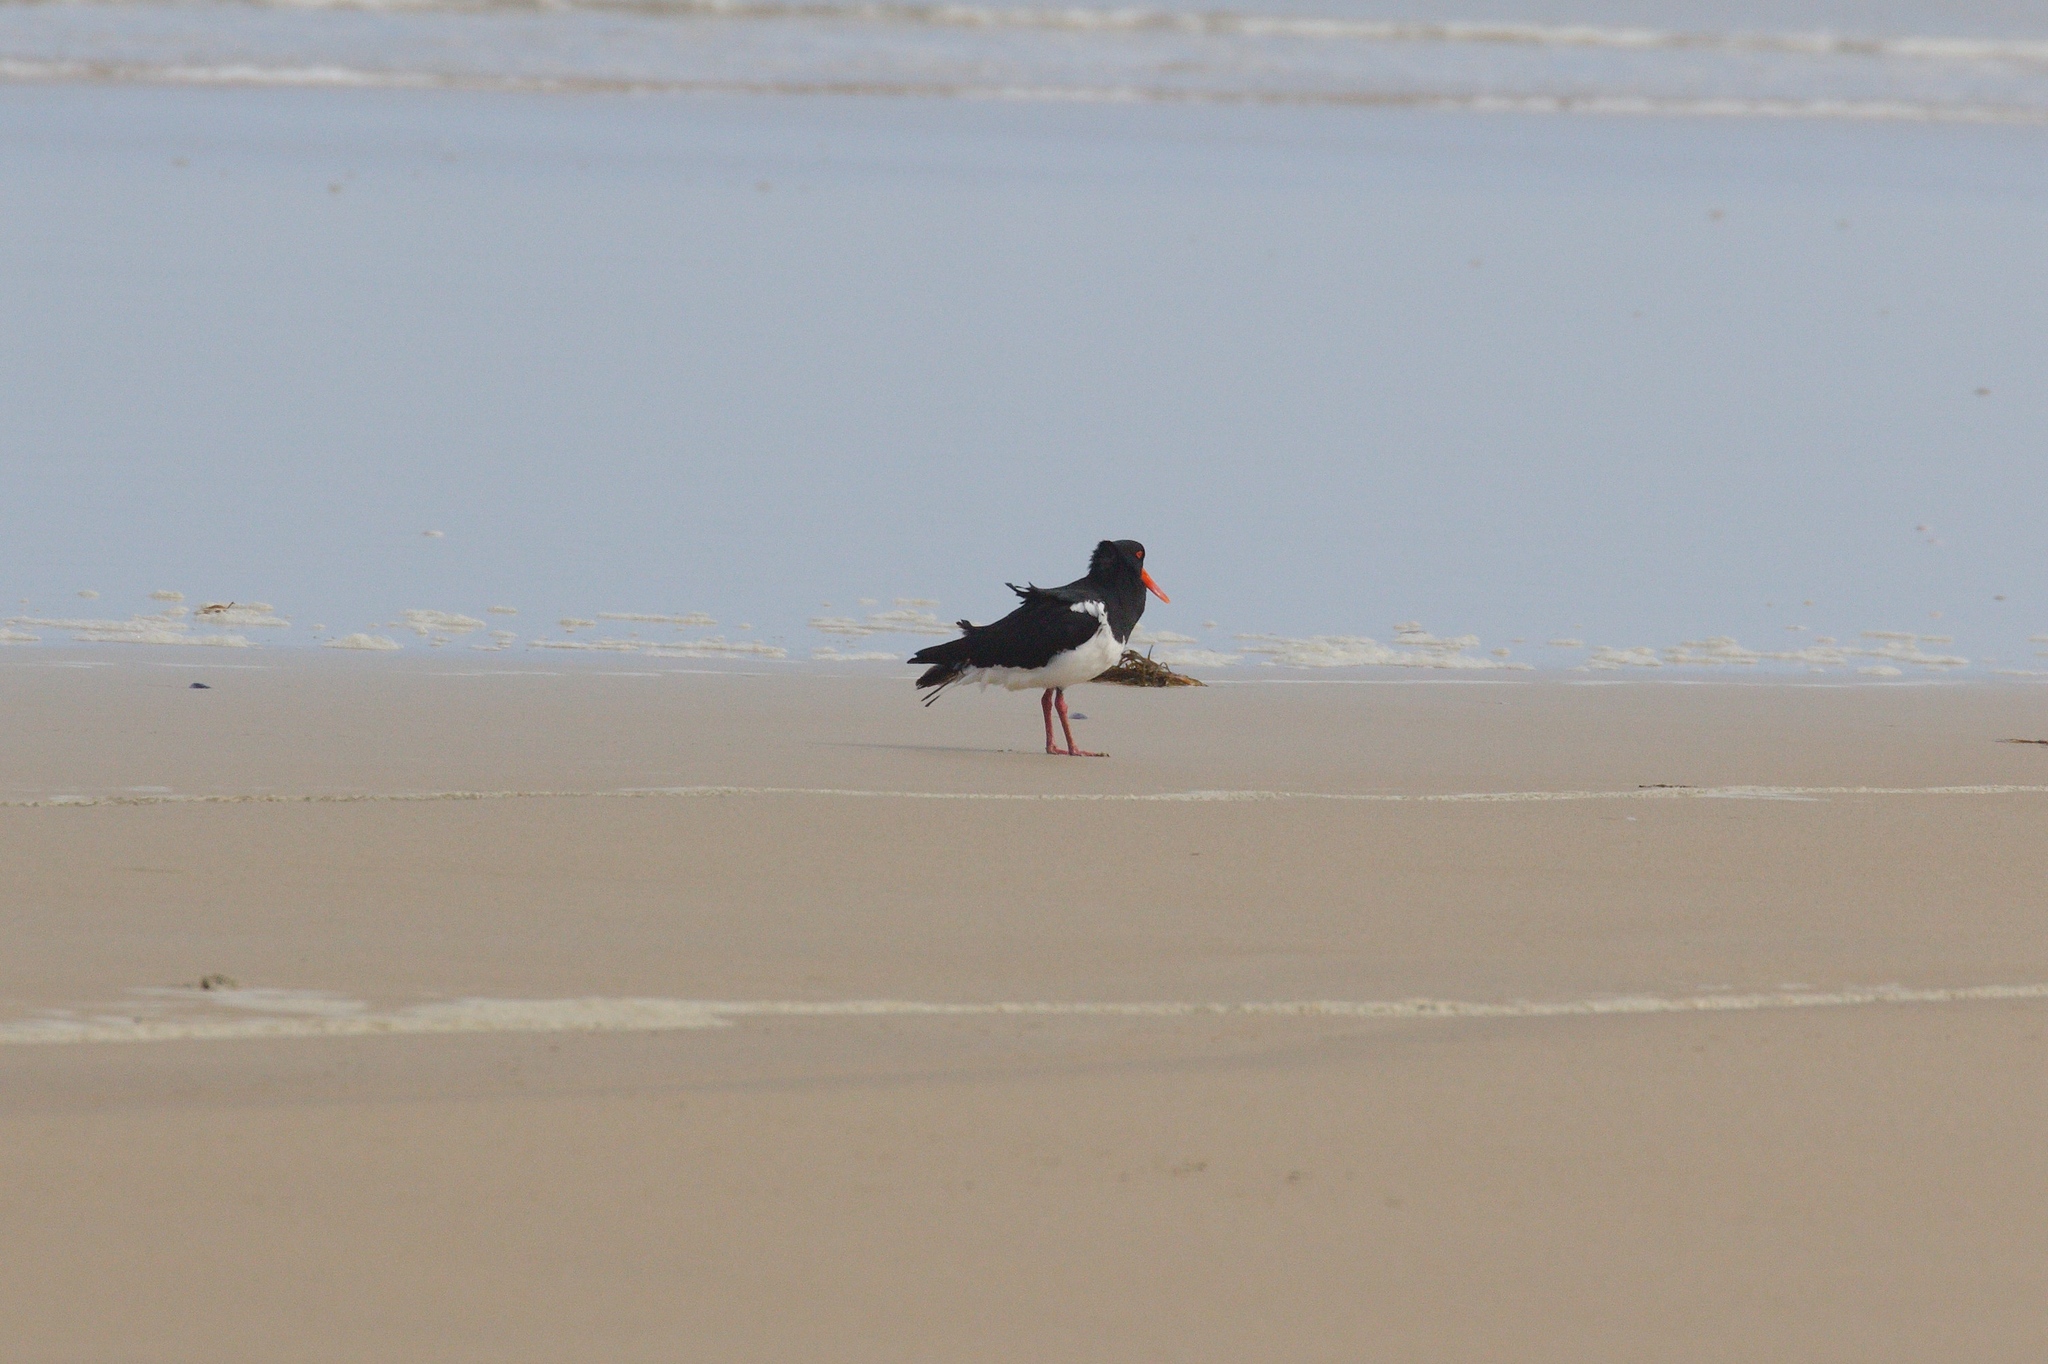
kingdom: Animalia
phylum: Chordata
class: Aves
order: Charadriiformes
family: Haematopodidae
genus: Haematopus
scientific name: Haematopus longirostris
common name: Pied oystercatcher
